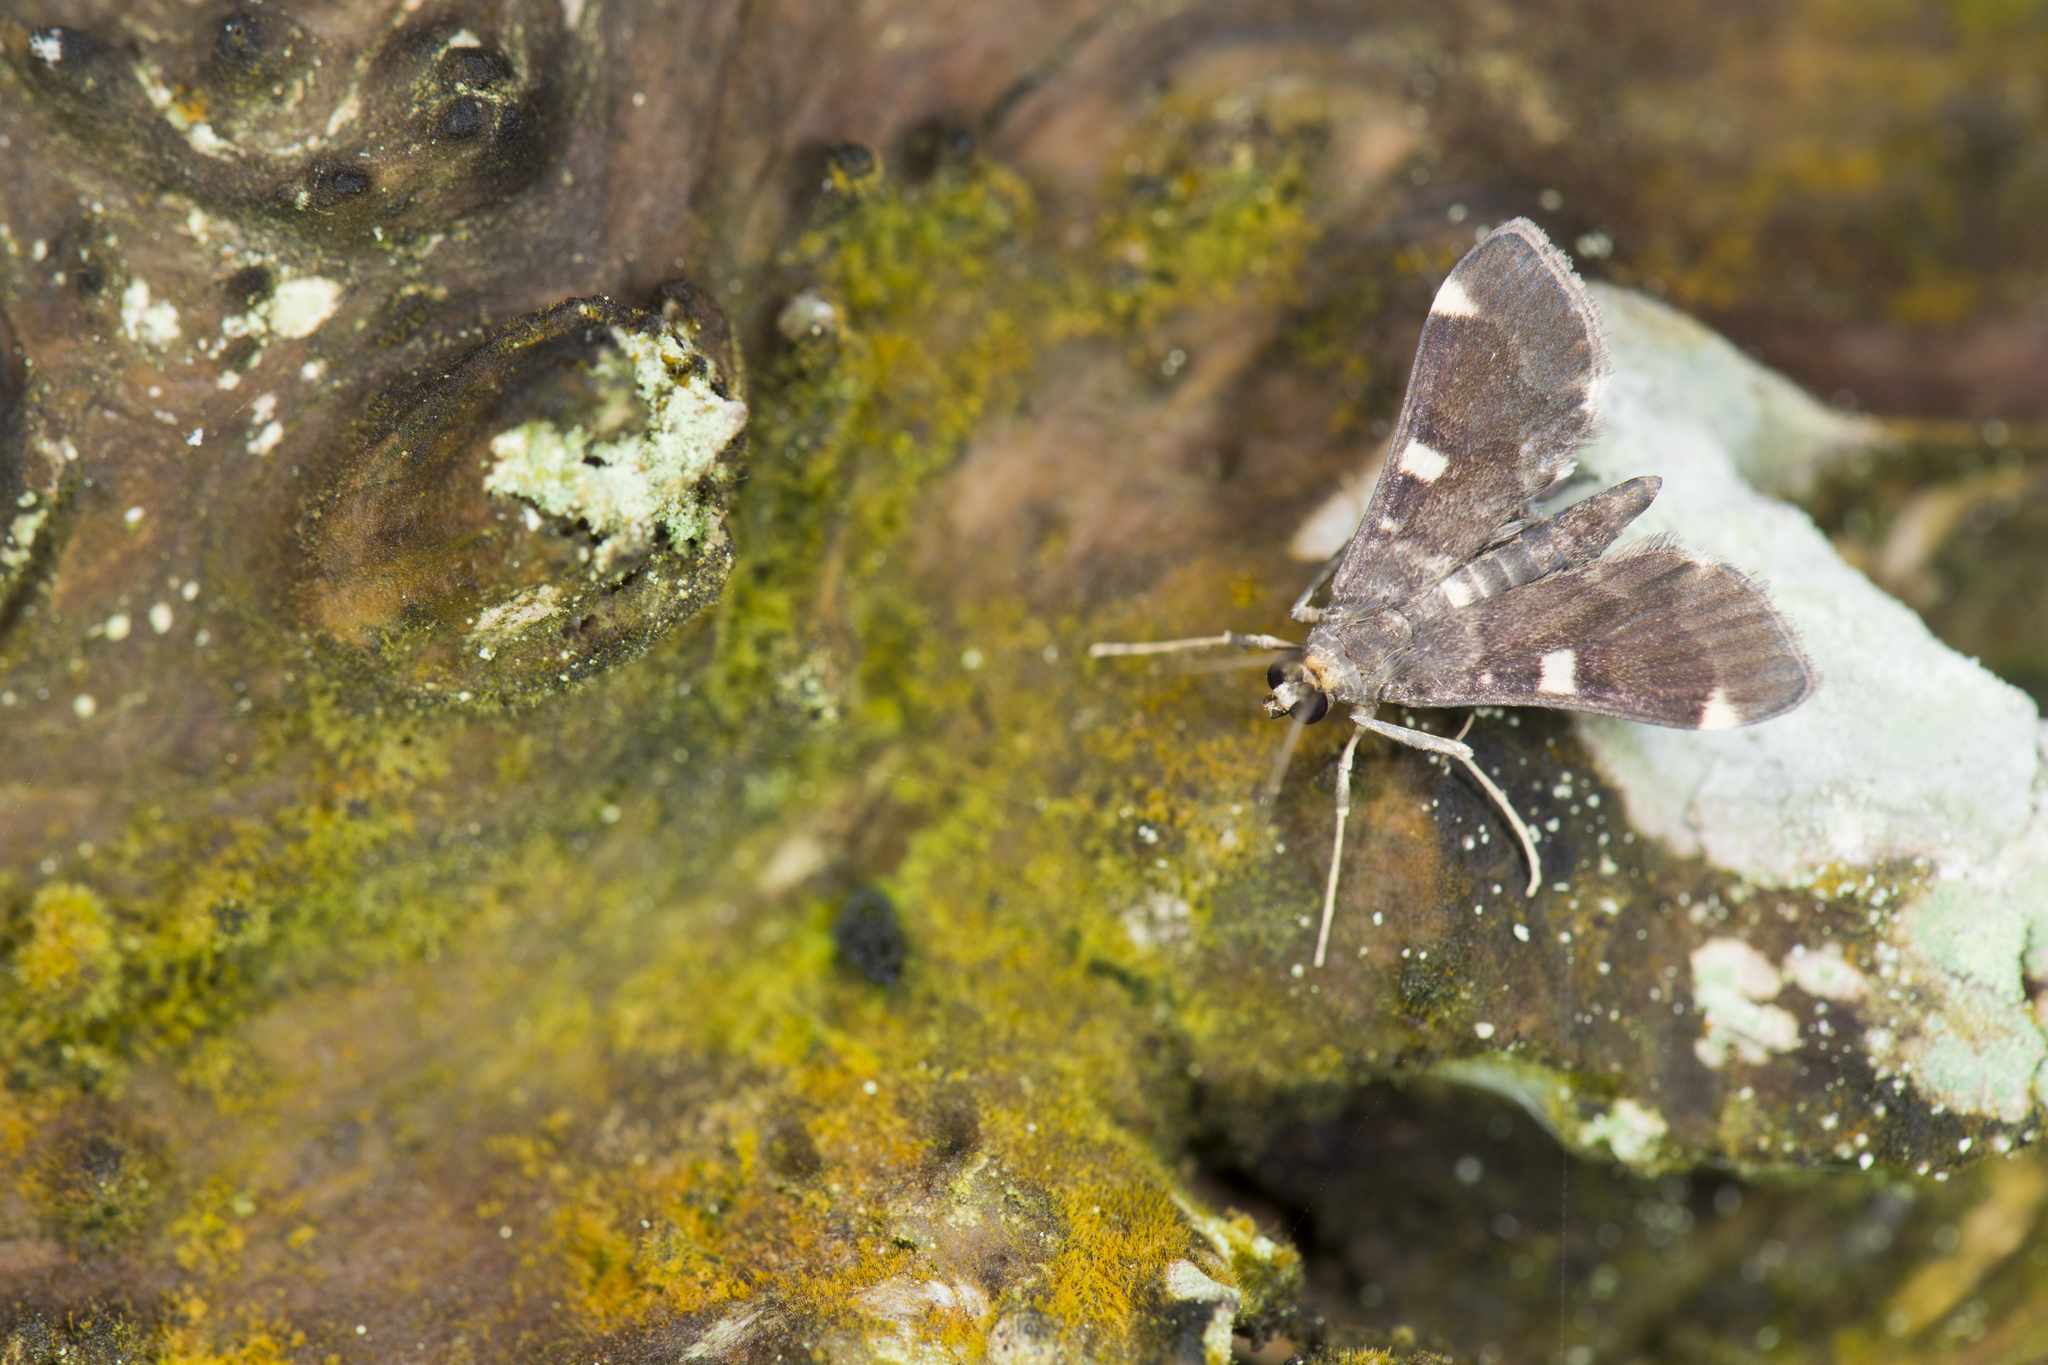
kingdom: Animalia
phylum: Arthropoda
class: Insecta
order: Lepidoptera
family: Crambidae
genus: Piletocera
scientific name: Piletocera aegimiusalis
